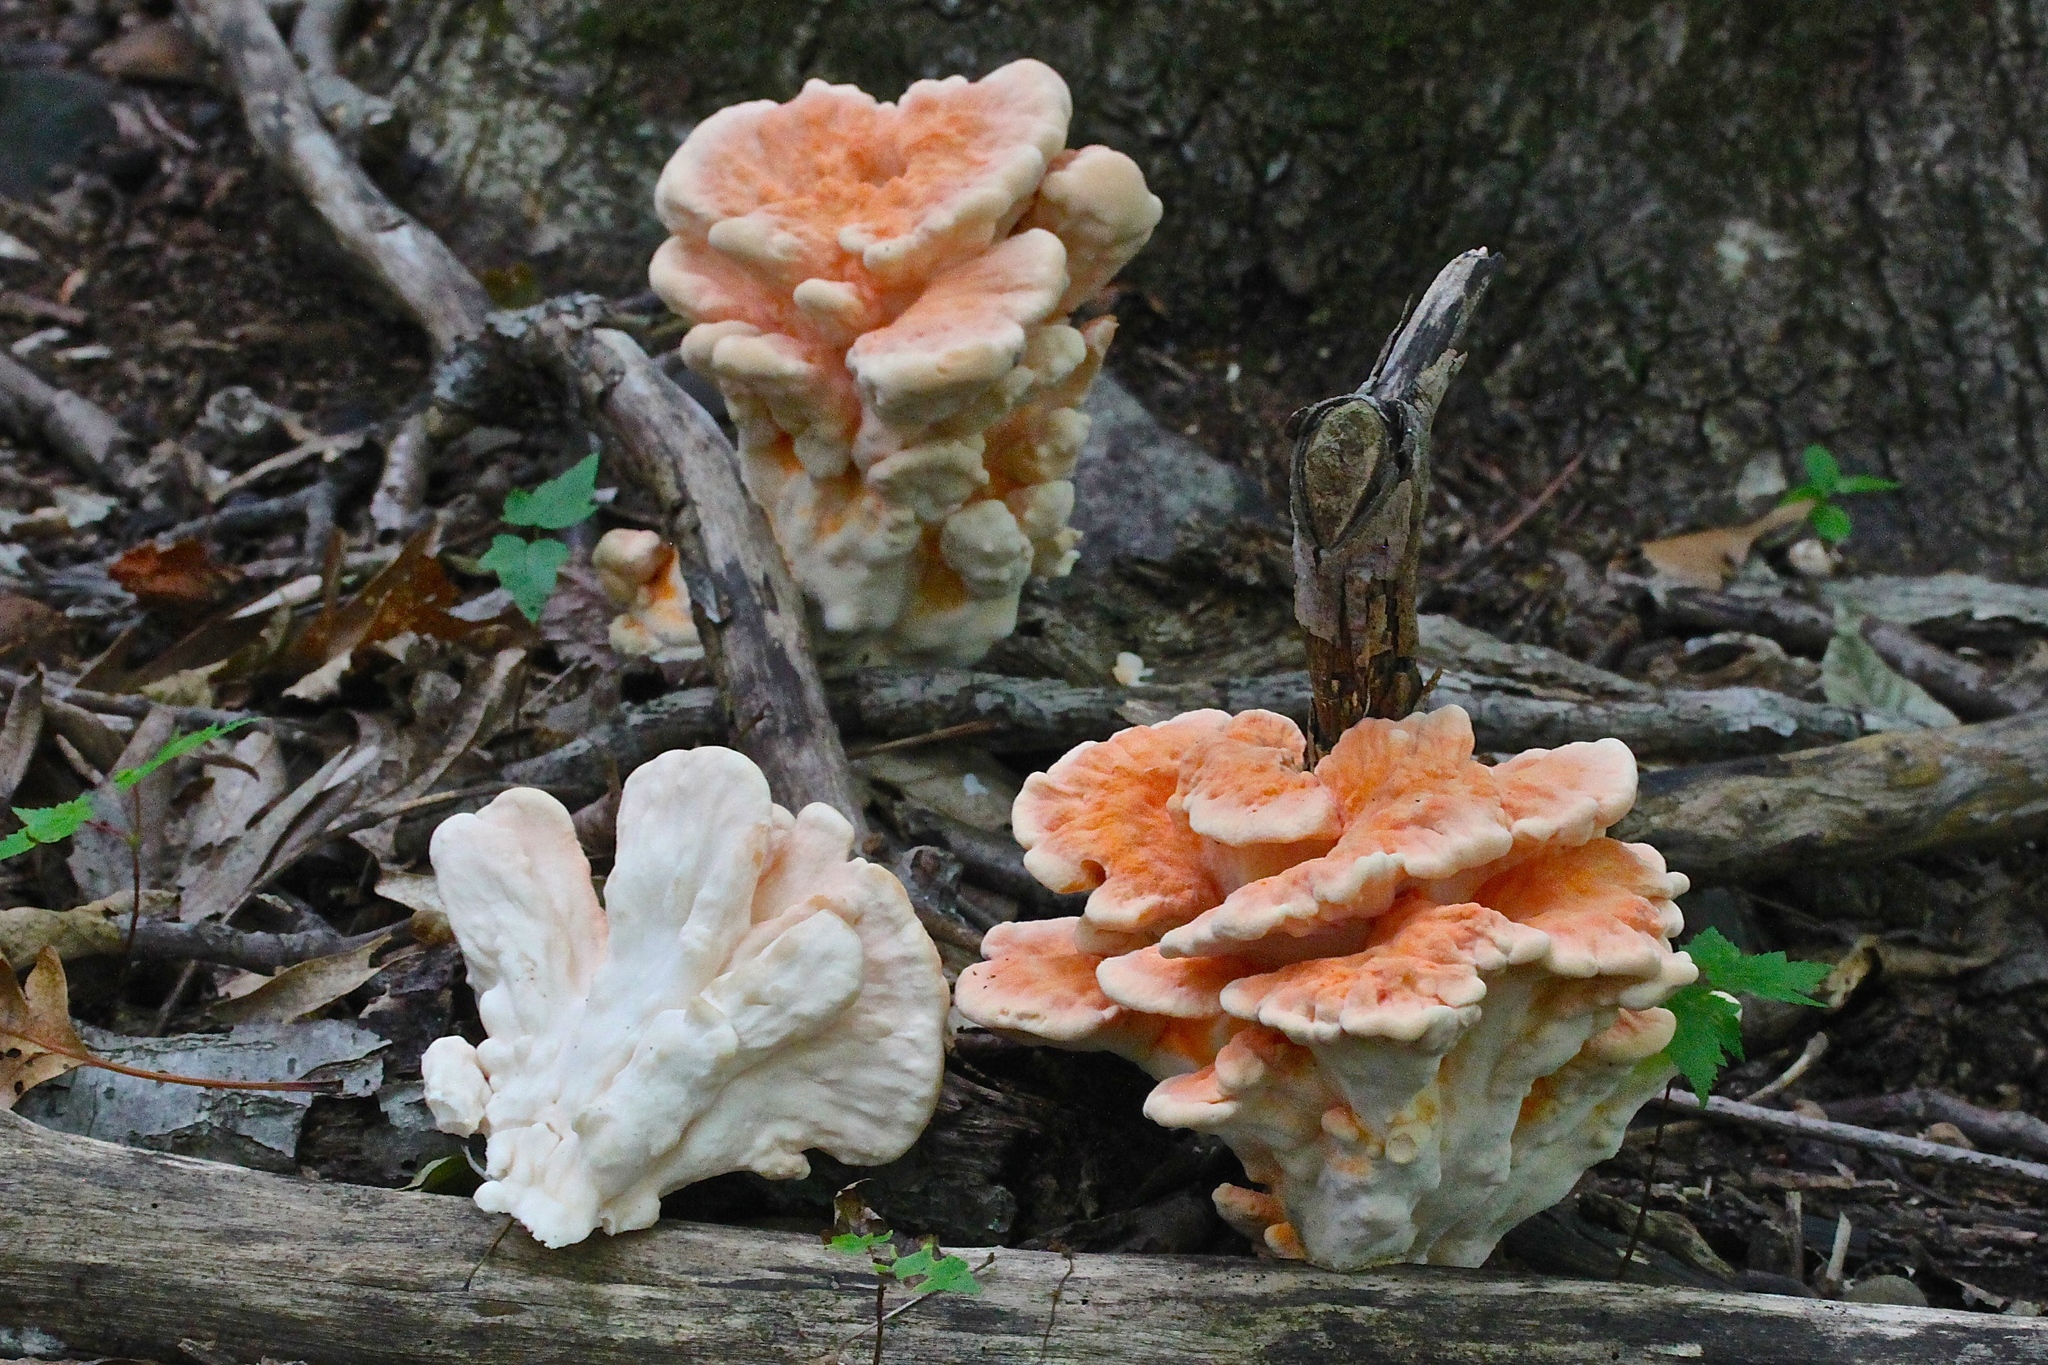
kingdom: Fungi
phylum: Basidiomycota
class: Agaricomycetes
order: Polyporales
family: Laetiporaceae
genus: Laetiporus
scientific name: Laetiporus sulphureus
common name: Chicken of the woods
